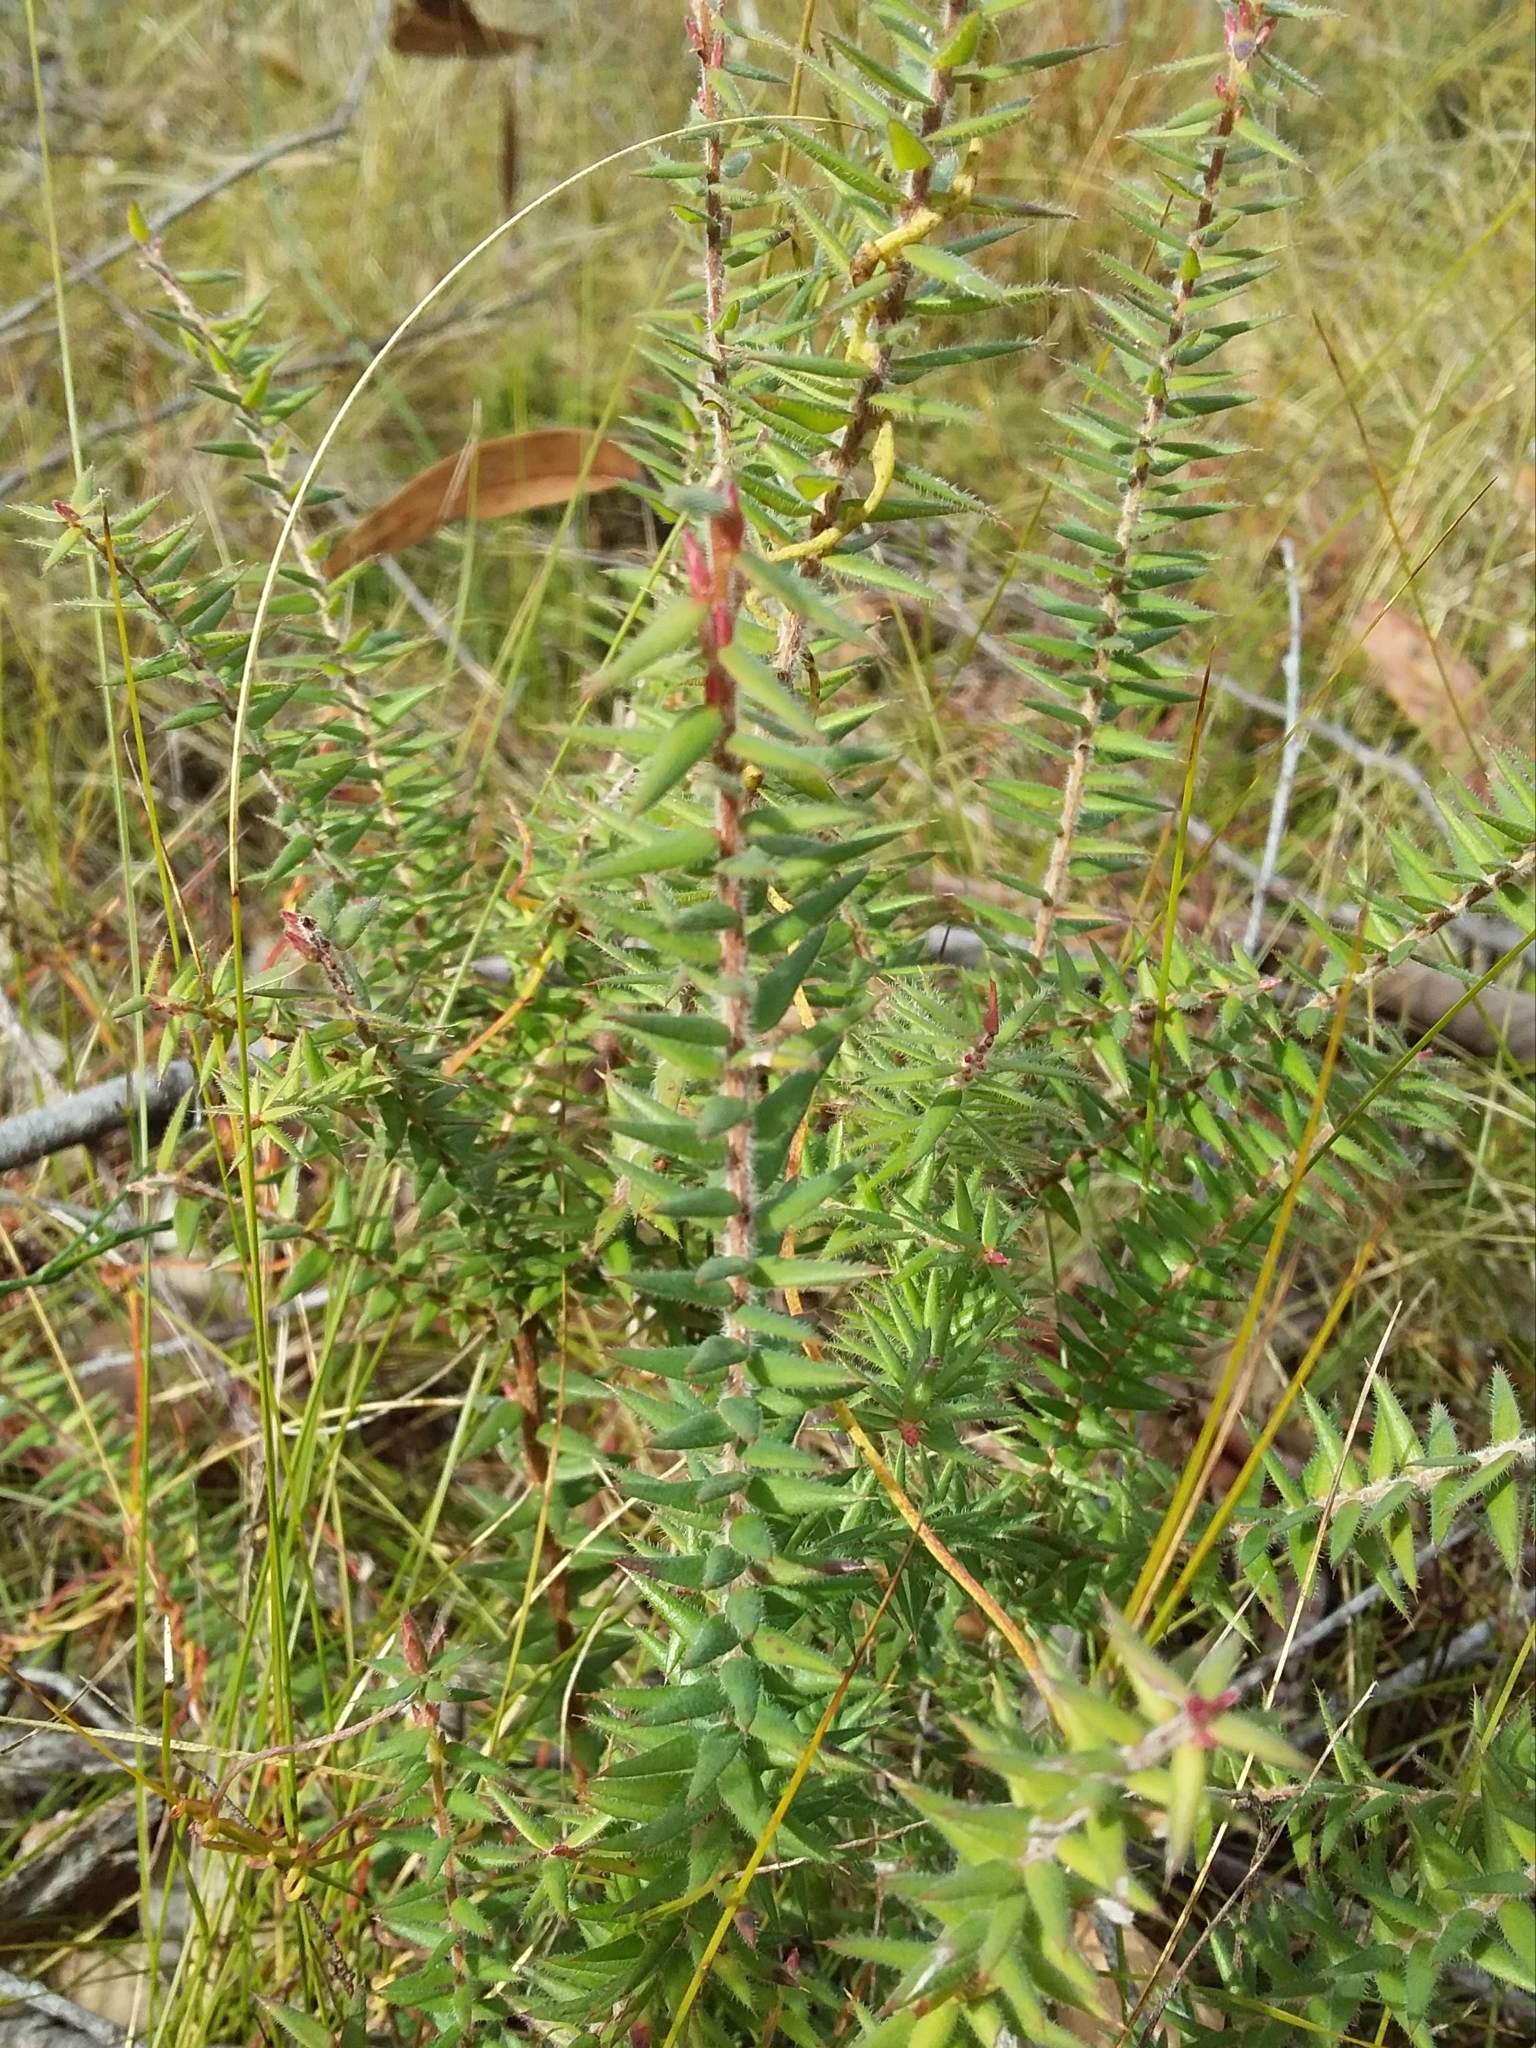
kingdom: Plantae
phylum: Tracheophyta
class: Magnoliopsida
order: Ericales
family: Ericaceae
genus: Acrotriche
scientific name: Acrotriche fasciculiflora
